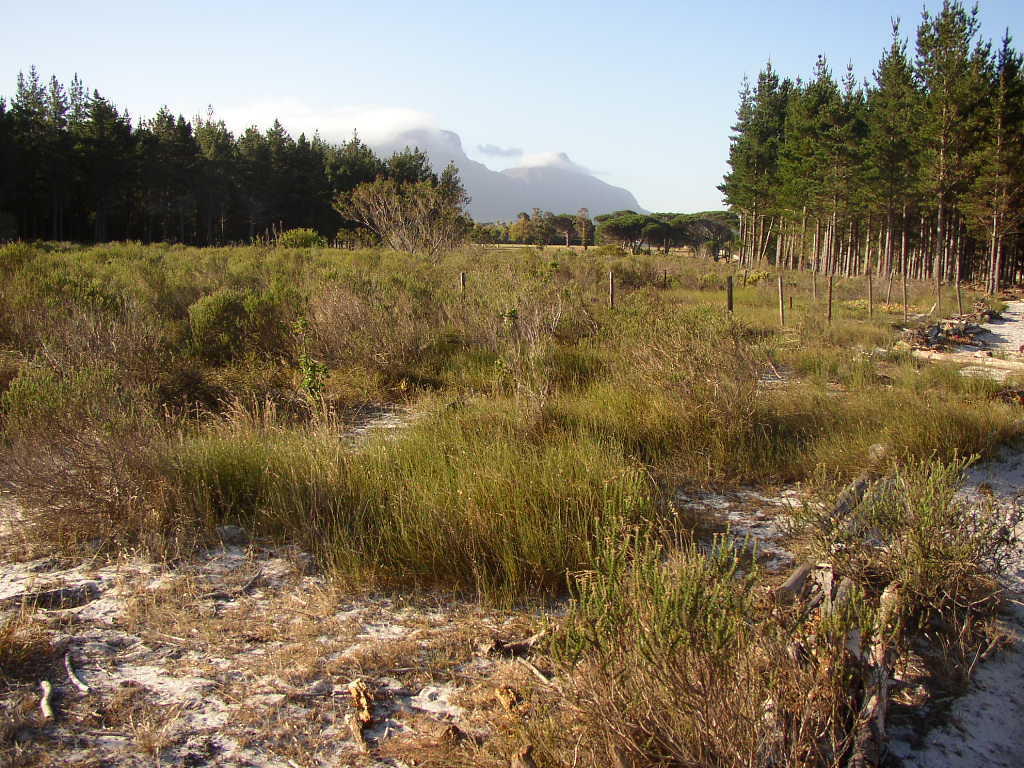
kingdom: Plantae
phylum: Tracheophyta
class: Liliopsida
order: Poales
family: Restionaceae
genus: Willdenowia
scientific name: Willdenowia sulcata
